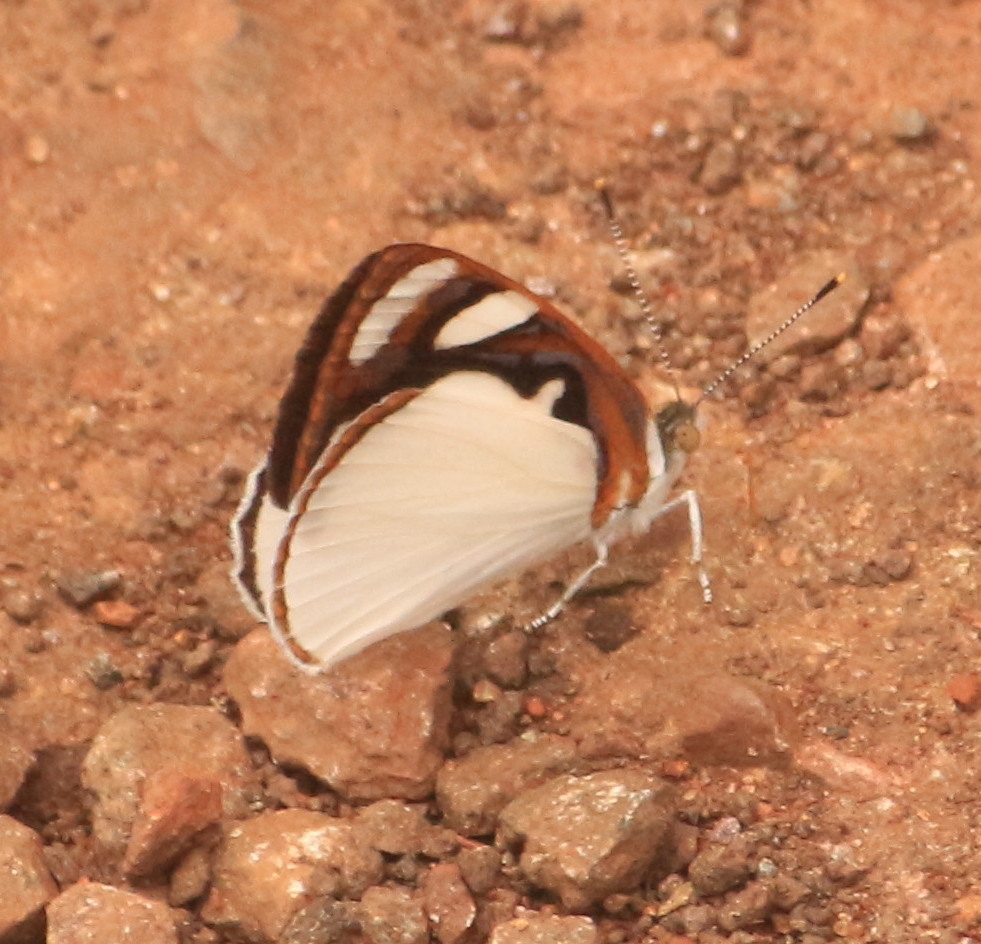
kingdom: Animalia
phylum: Arthropoda
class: Insecta
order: Lepidoptera
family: Nymphalidae
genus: Dynamine
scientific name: Dynamine coenus
